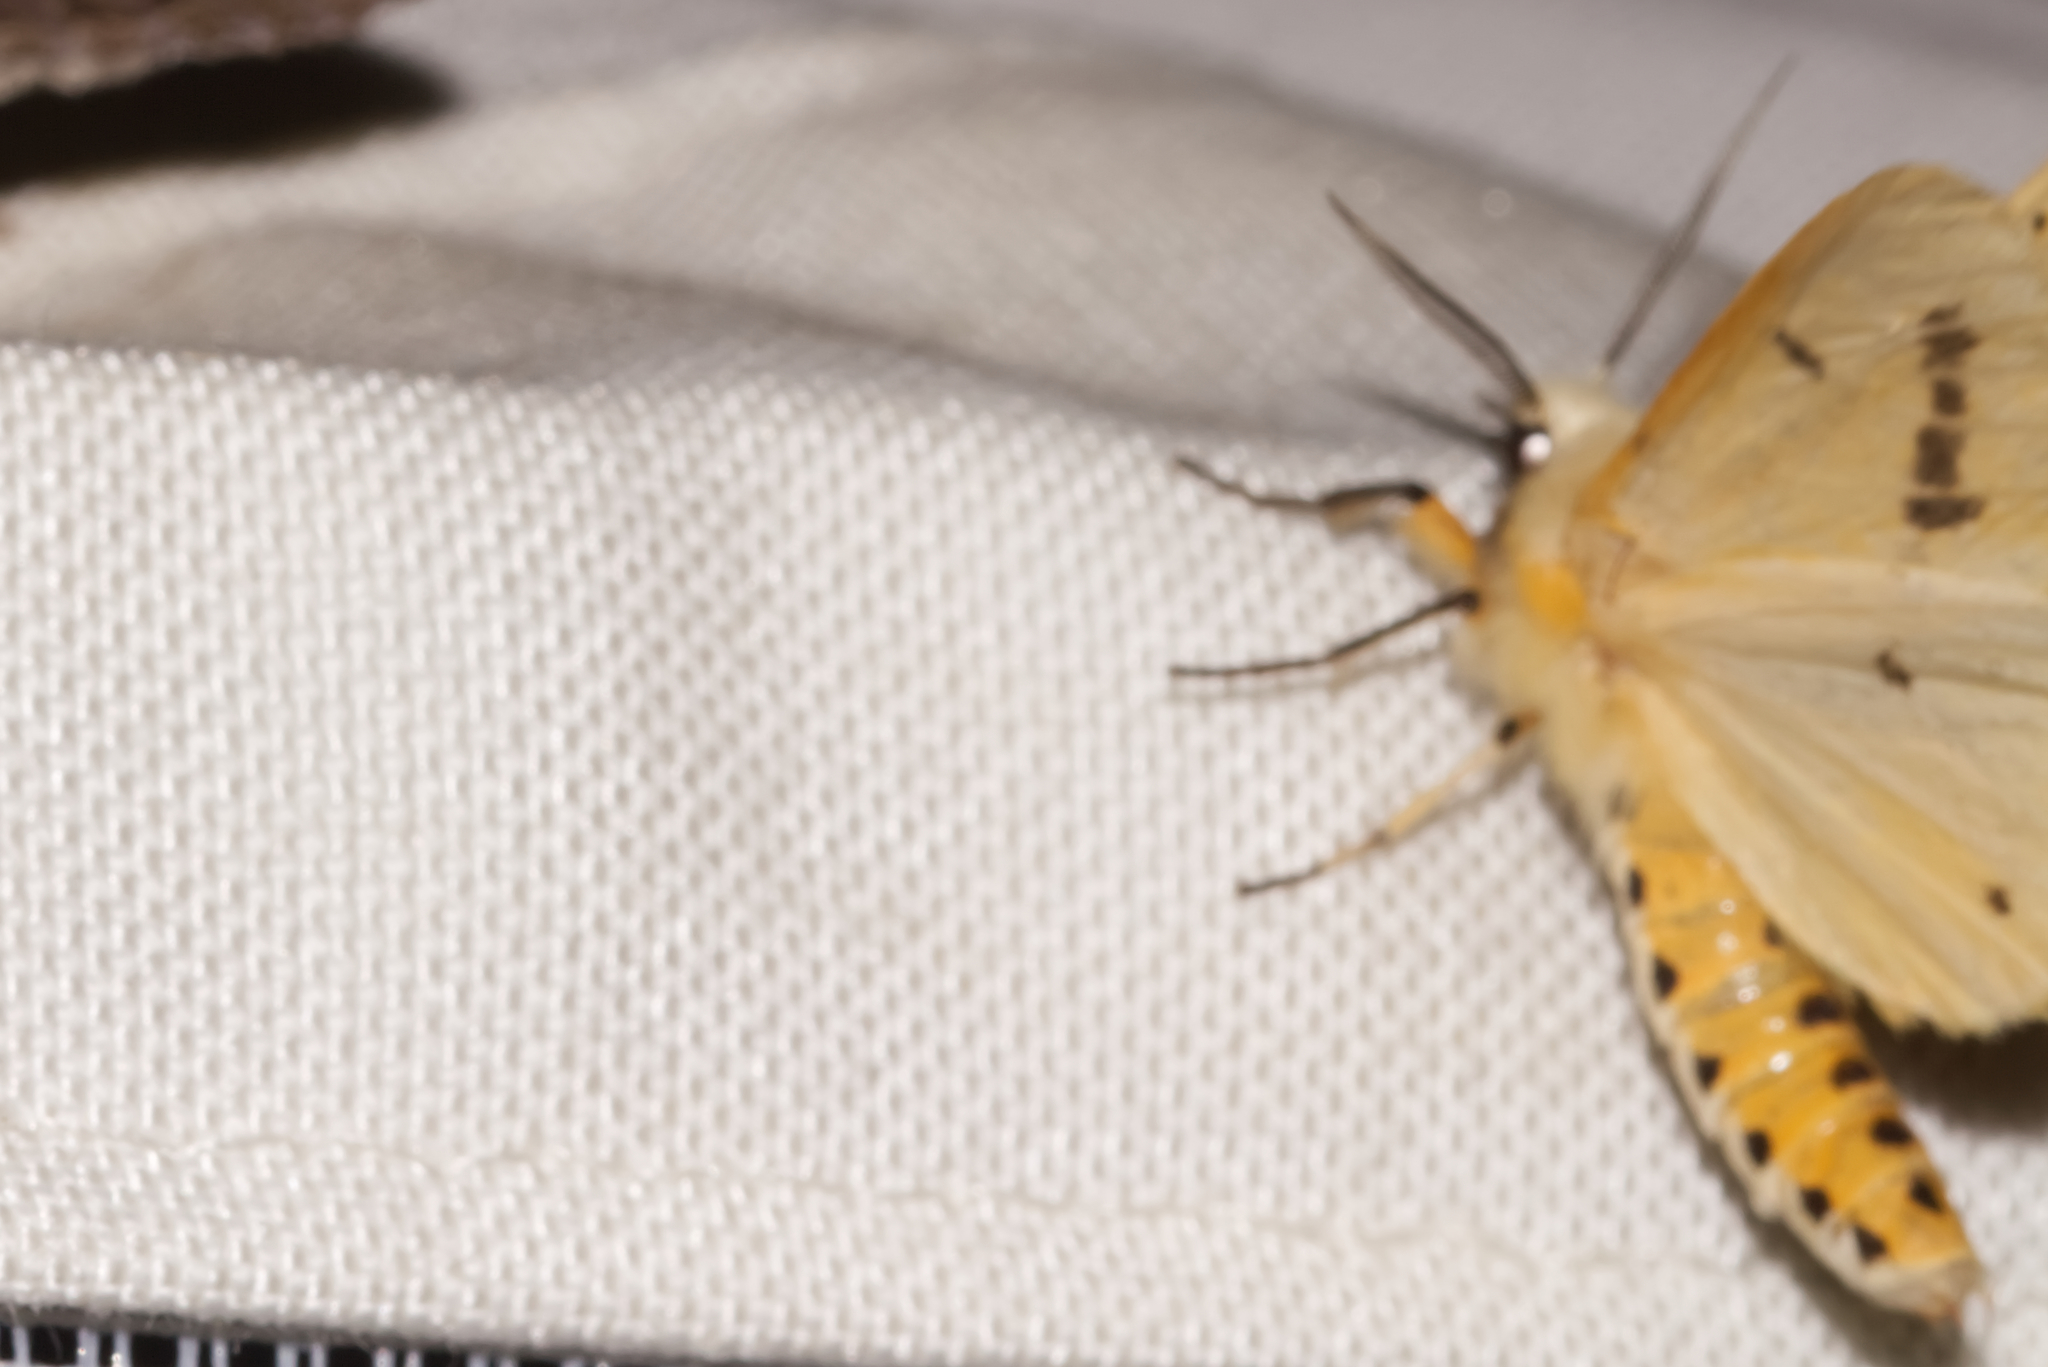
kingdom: Animalia
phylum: Arthropoda
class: Insecta
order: Lepidoptera
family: Erebidae
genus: Spilarctia
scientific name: Spilarctia lutea
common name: Buff ermine
